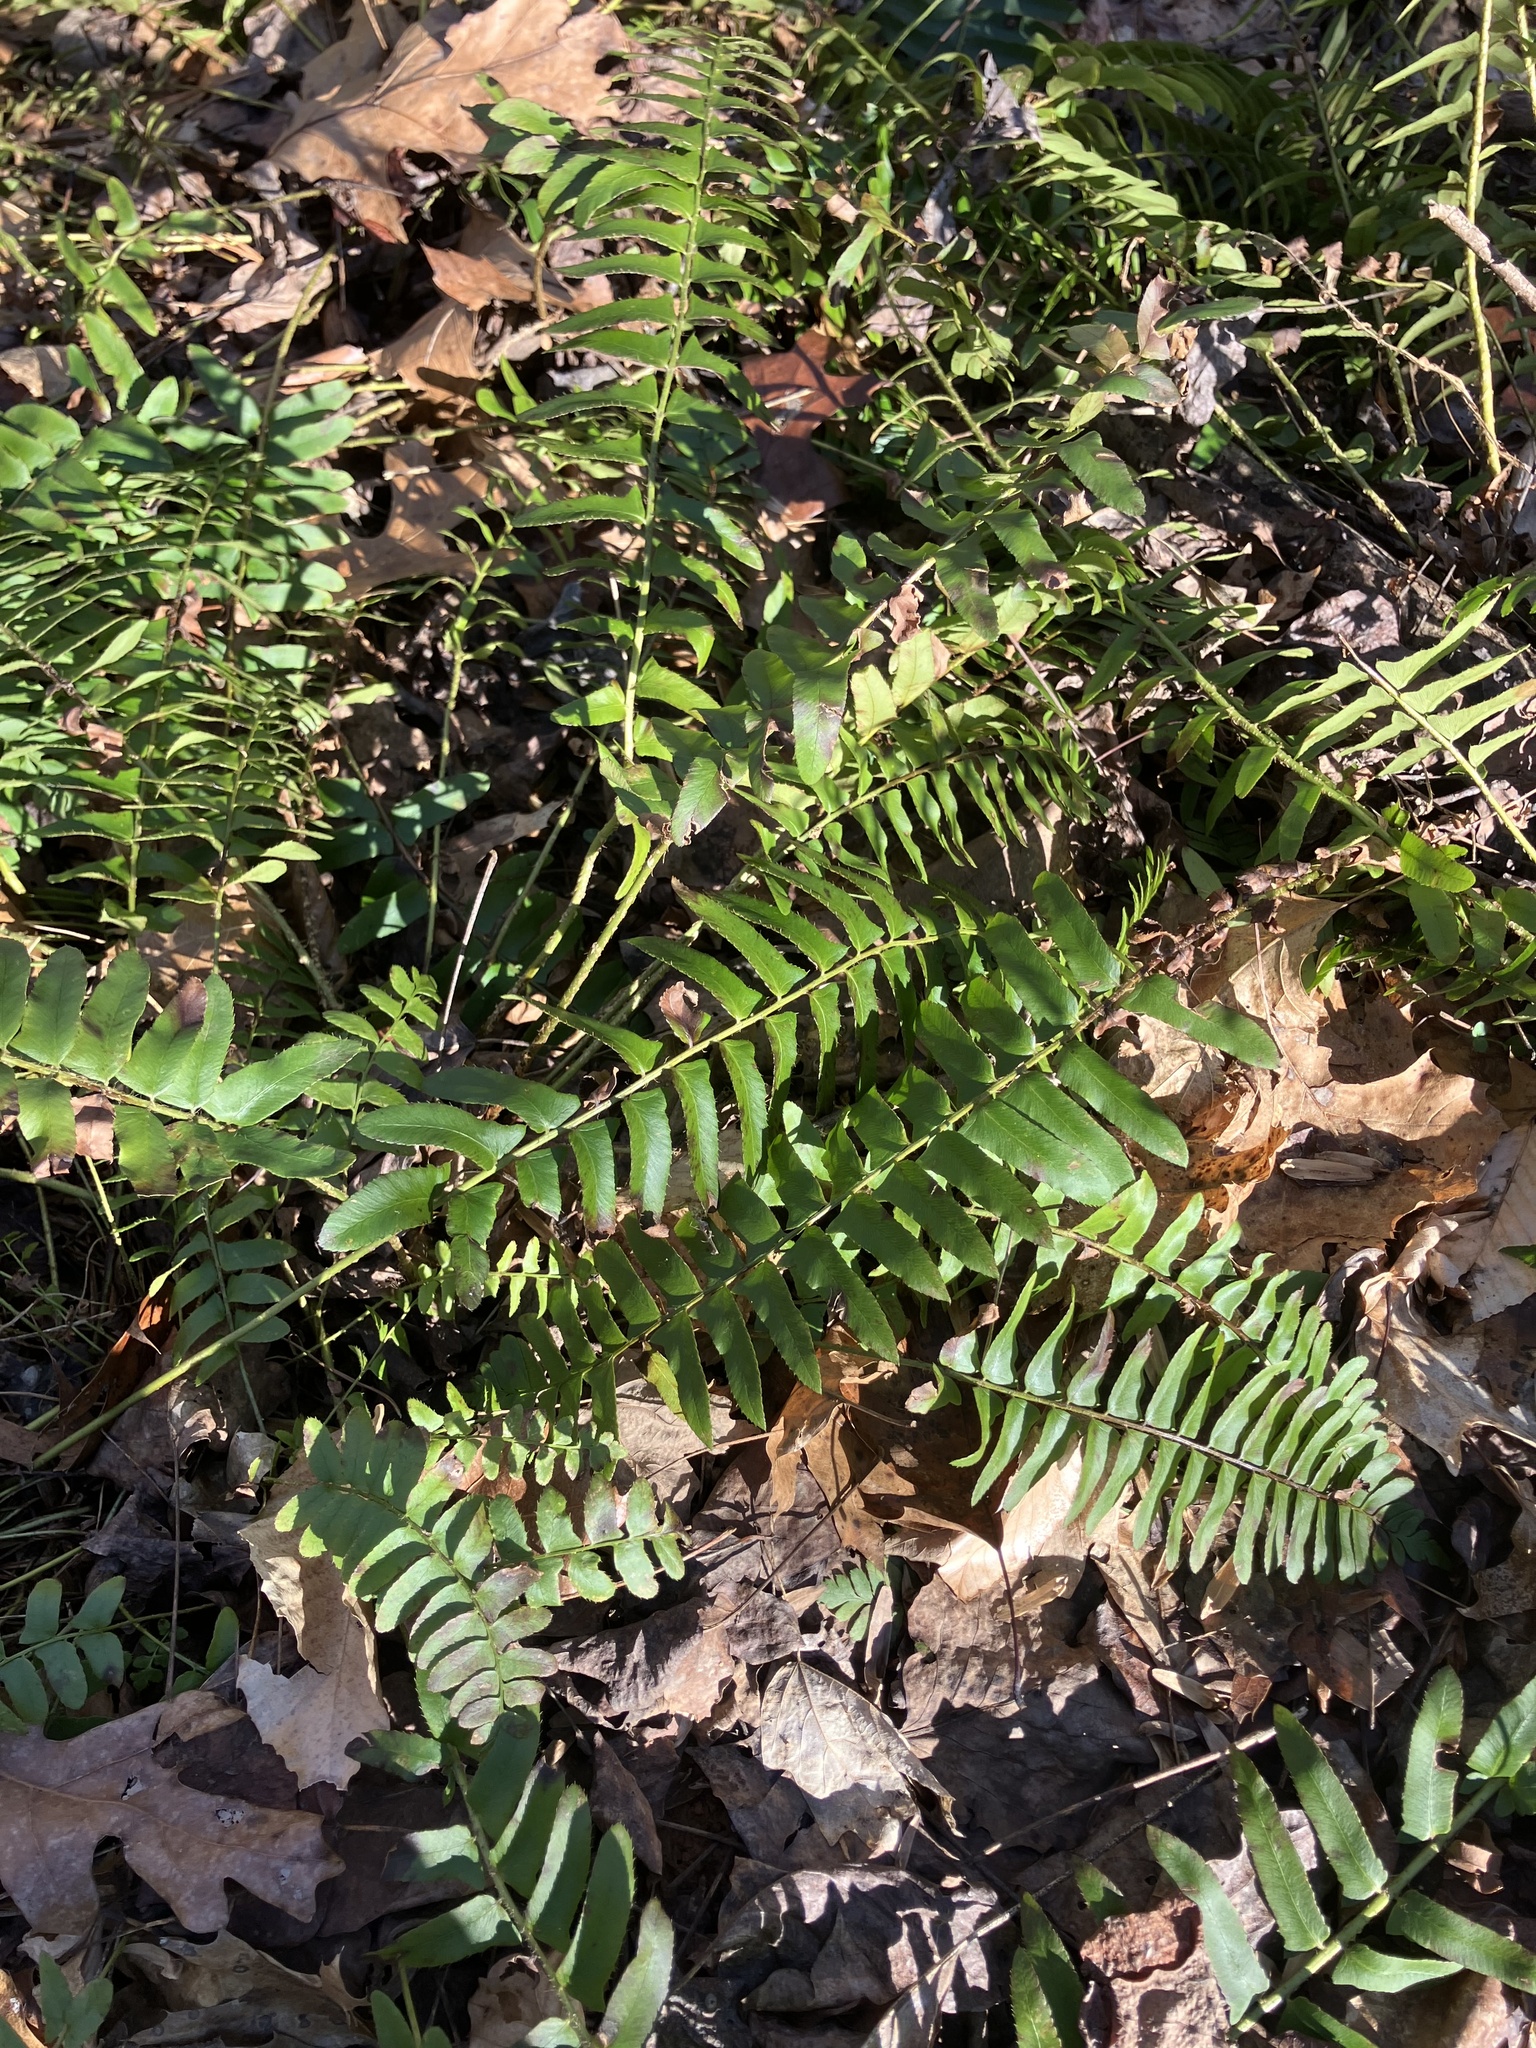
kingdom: Plantae
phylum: Tracheophyta
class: Polypodiopsida
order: Polypodiales
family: Dryopteridaceae
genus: Polystichum
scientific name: Polystichum acrostichoides
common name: Christmas fern
